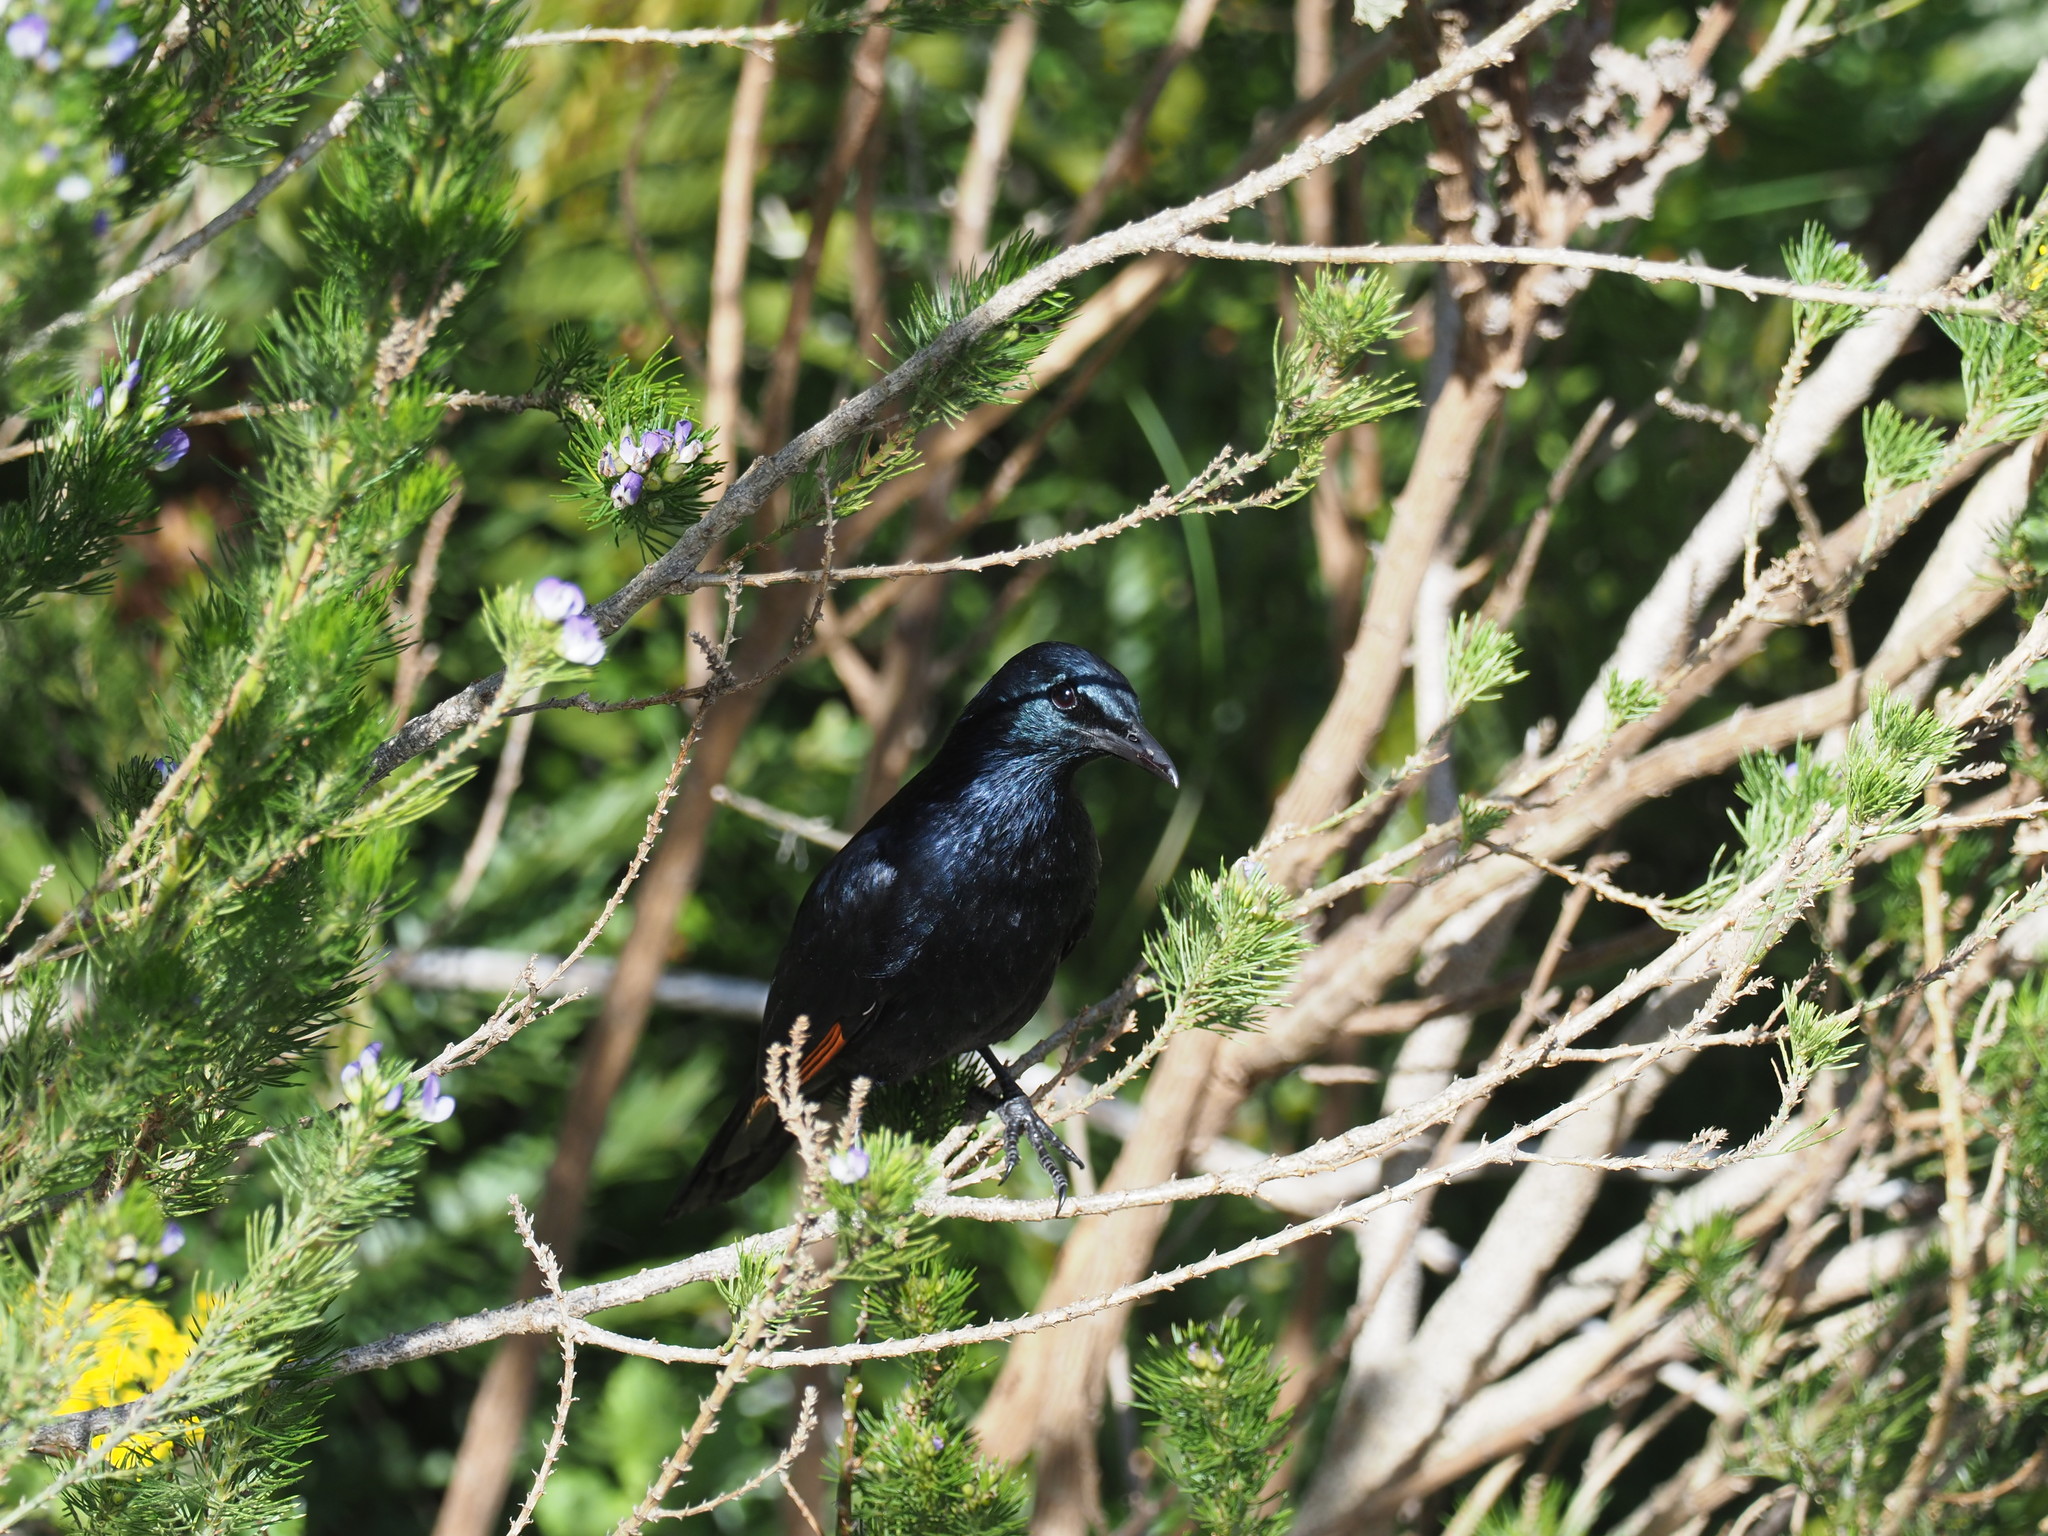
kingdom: Animalia
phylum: Chordata
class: Aves
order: Passeriformes
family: Sturnidae
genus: Onychognathus
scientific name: Onychognathus morio
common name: Red-winged starling
